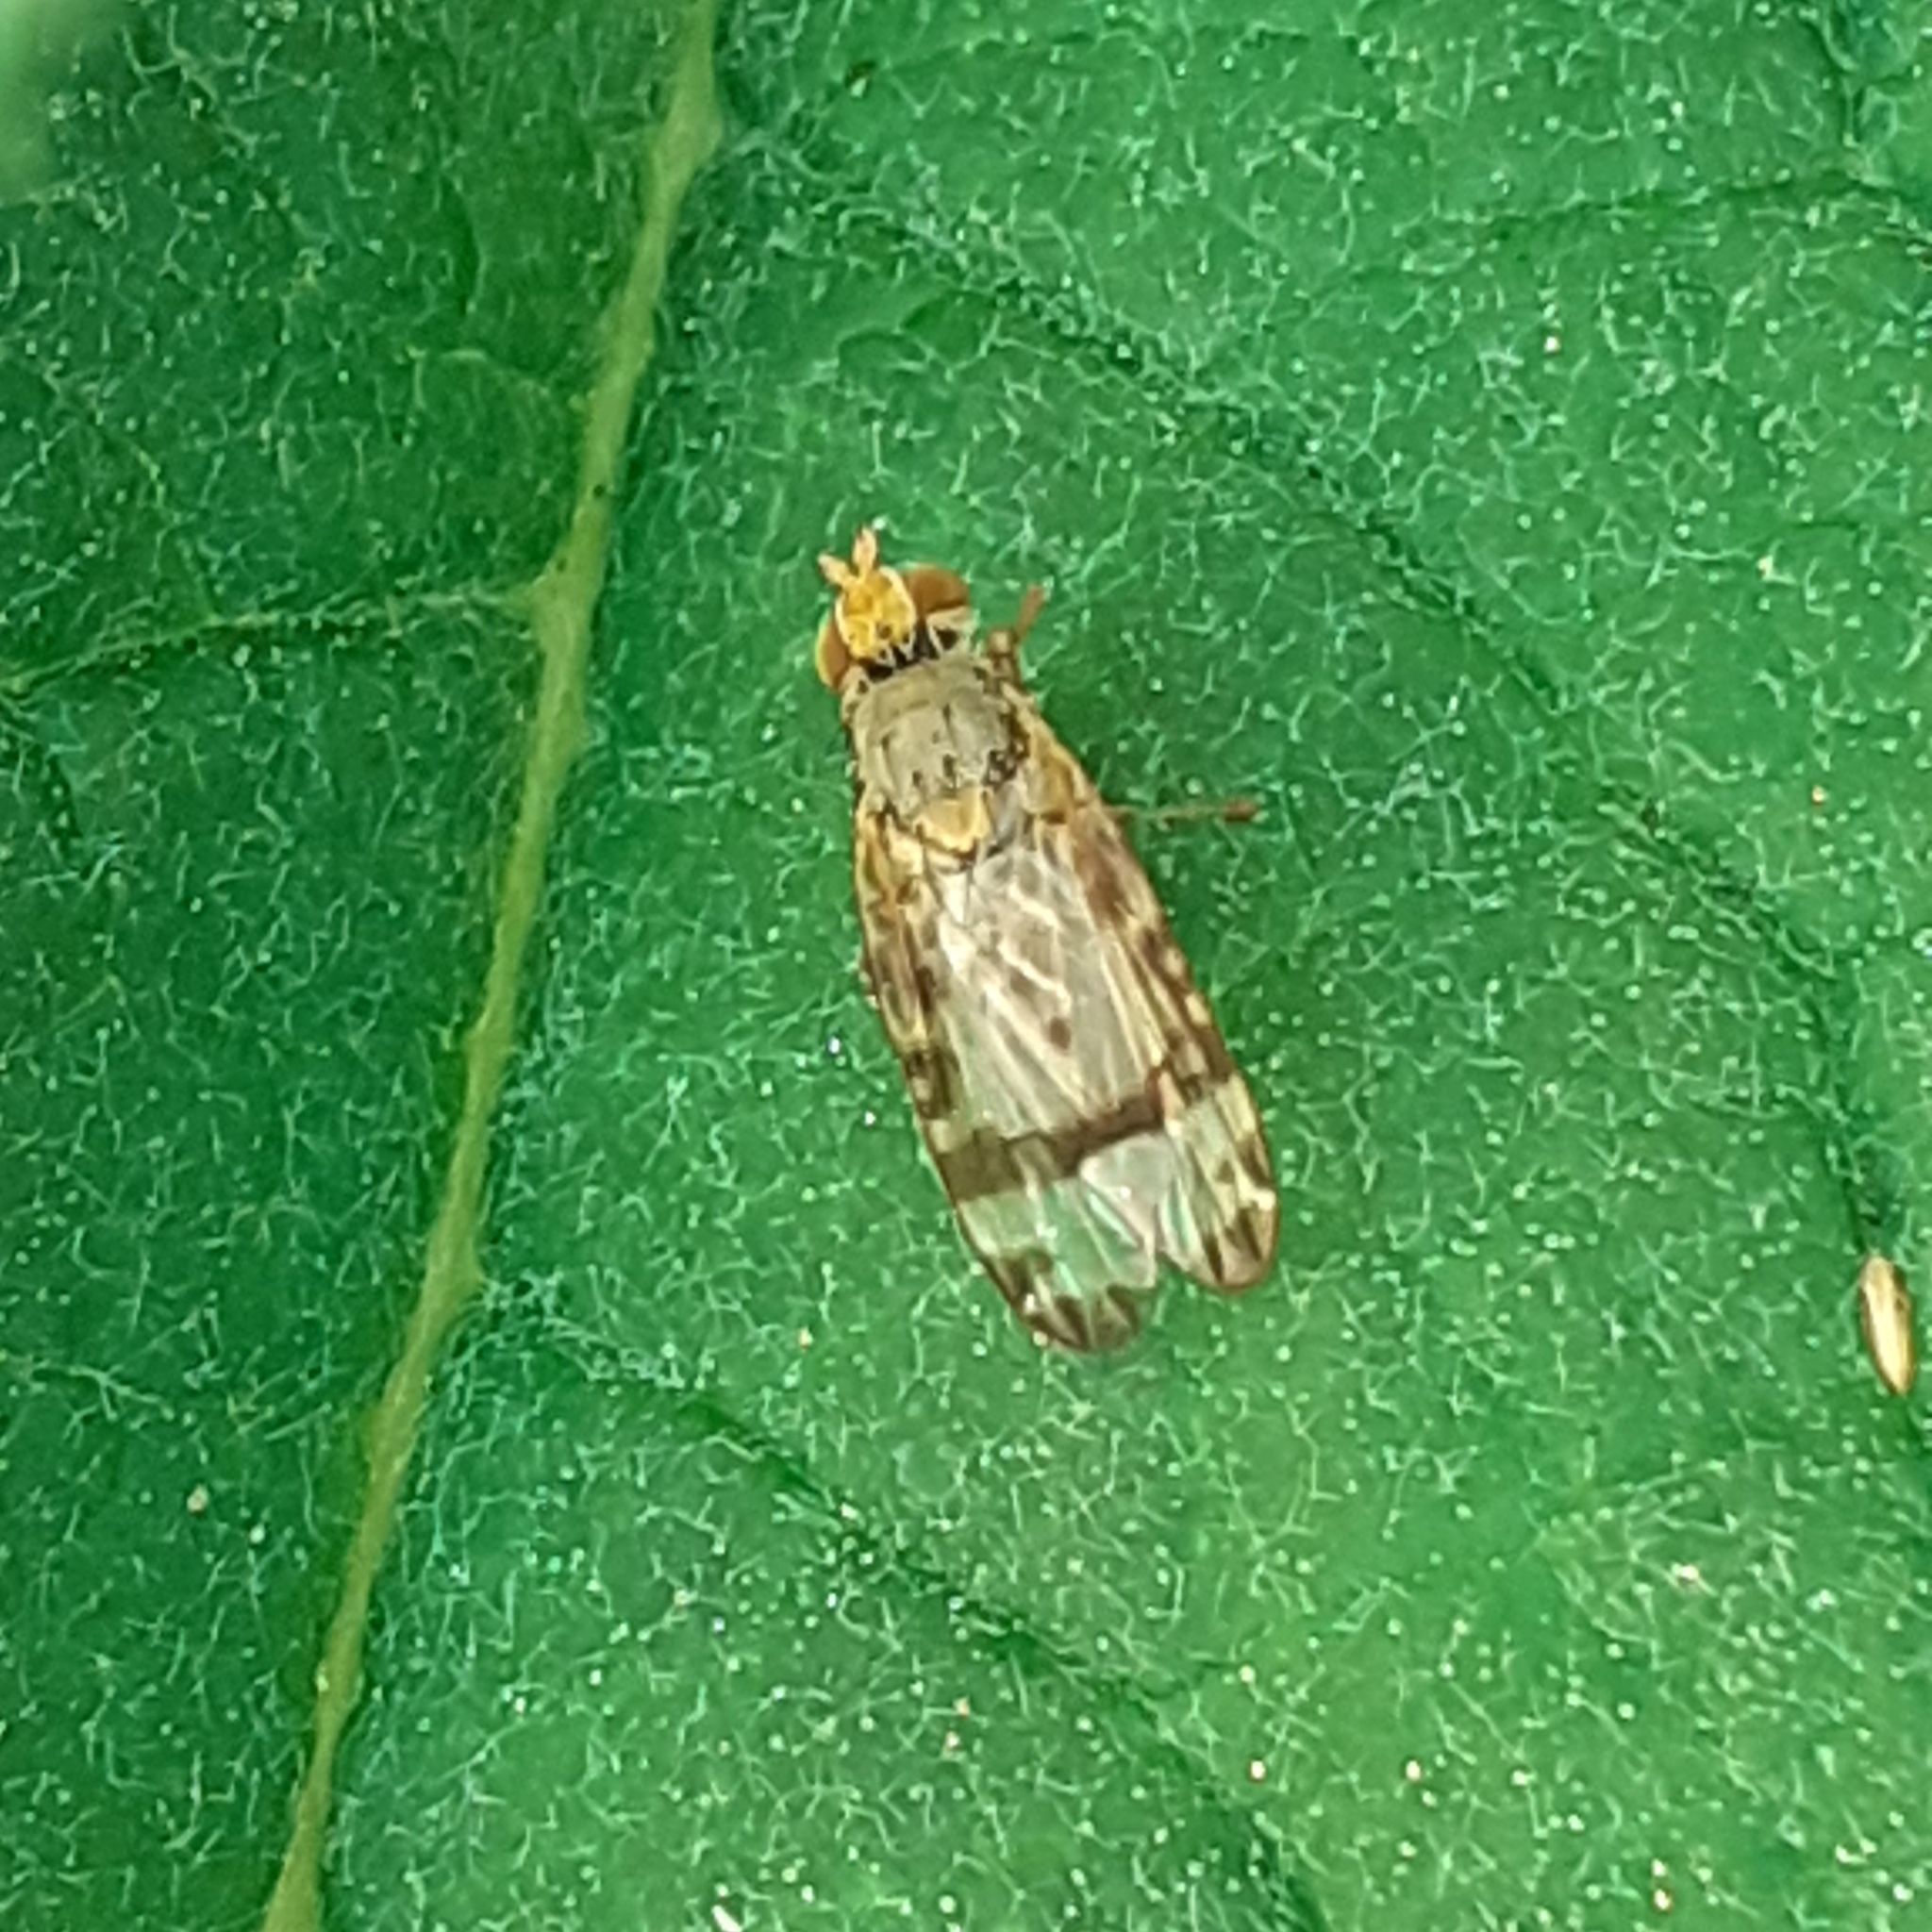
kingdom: Animalia
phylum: Arthropoda
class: Insecta
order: Diptera
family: Tephritidae
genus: Sphenella
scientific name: Sphenella marginata
